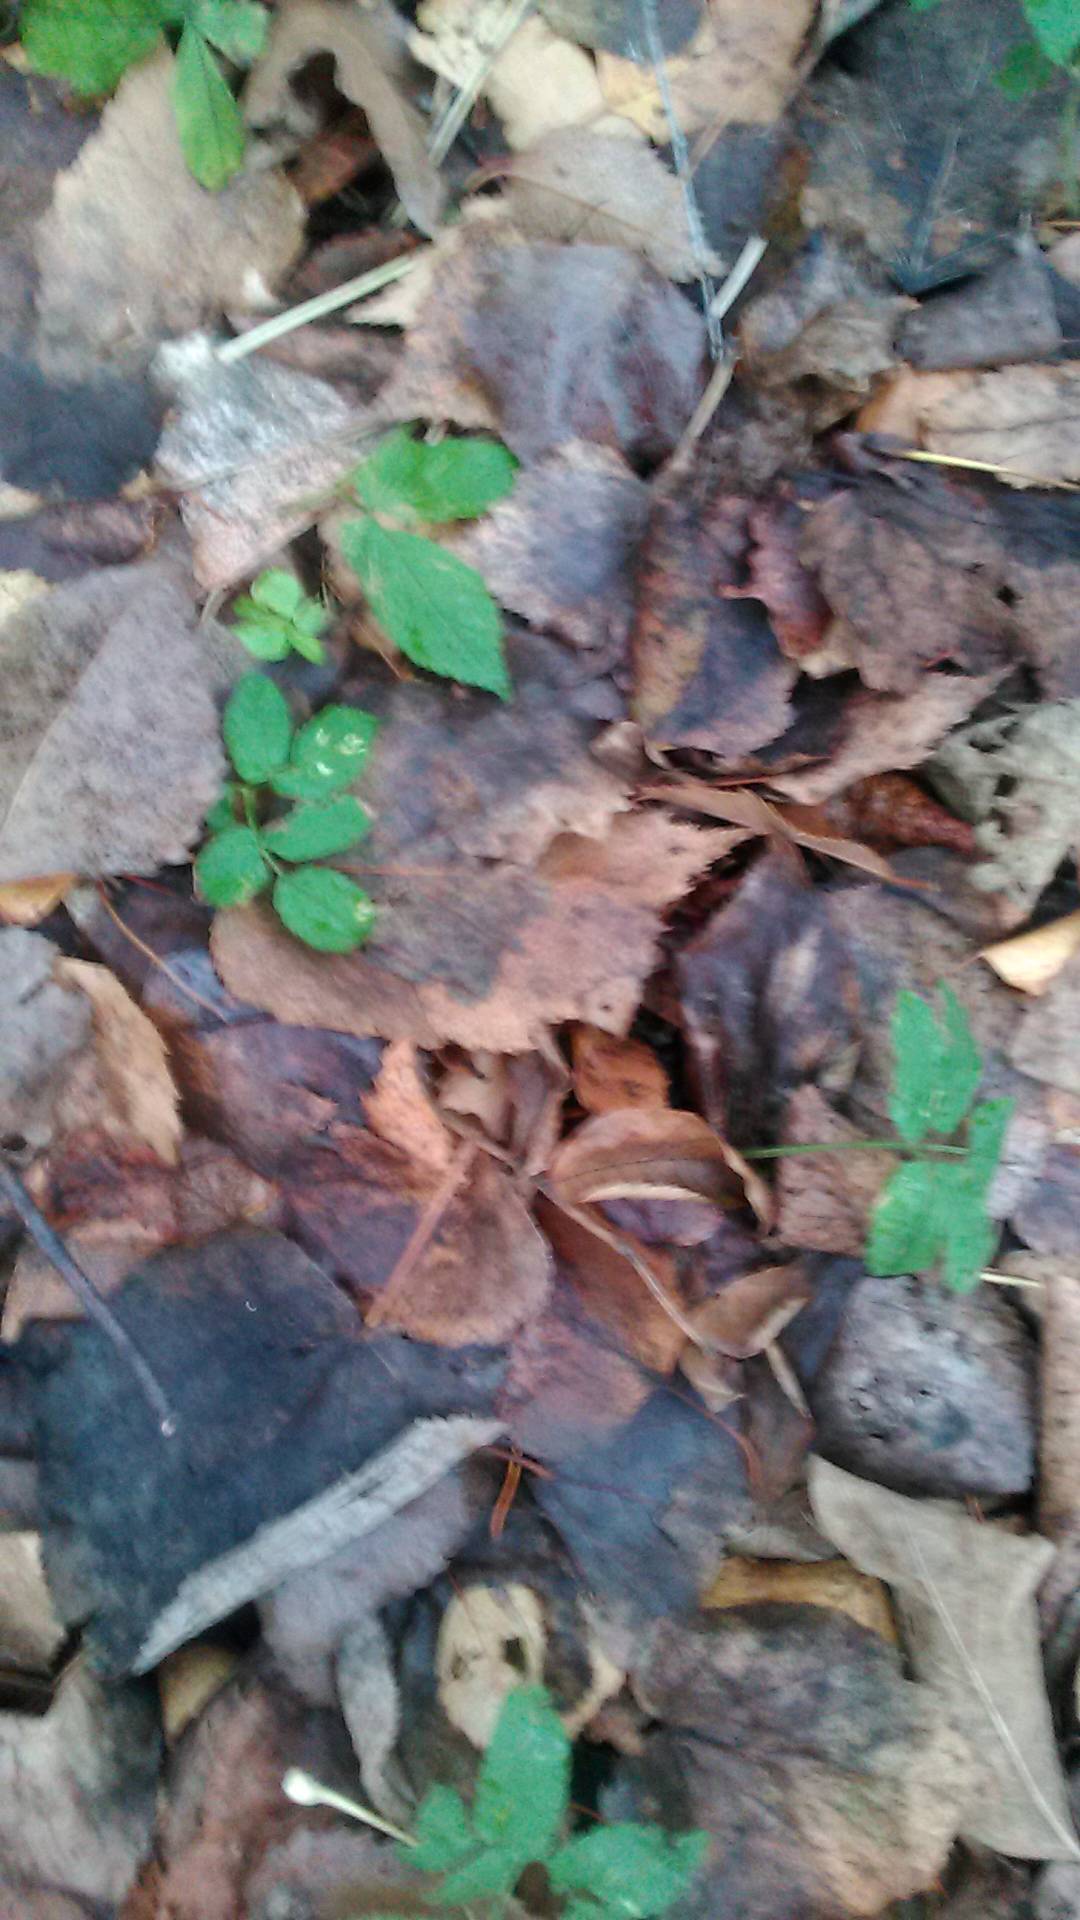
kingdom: Plantae
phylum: Tracheophyta
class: Magnoliopsida
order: Apiales
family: Apiaceae
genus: Aegopodium
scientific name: Aegopodium podagraria
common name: Ground-elder
